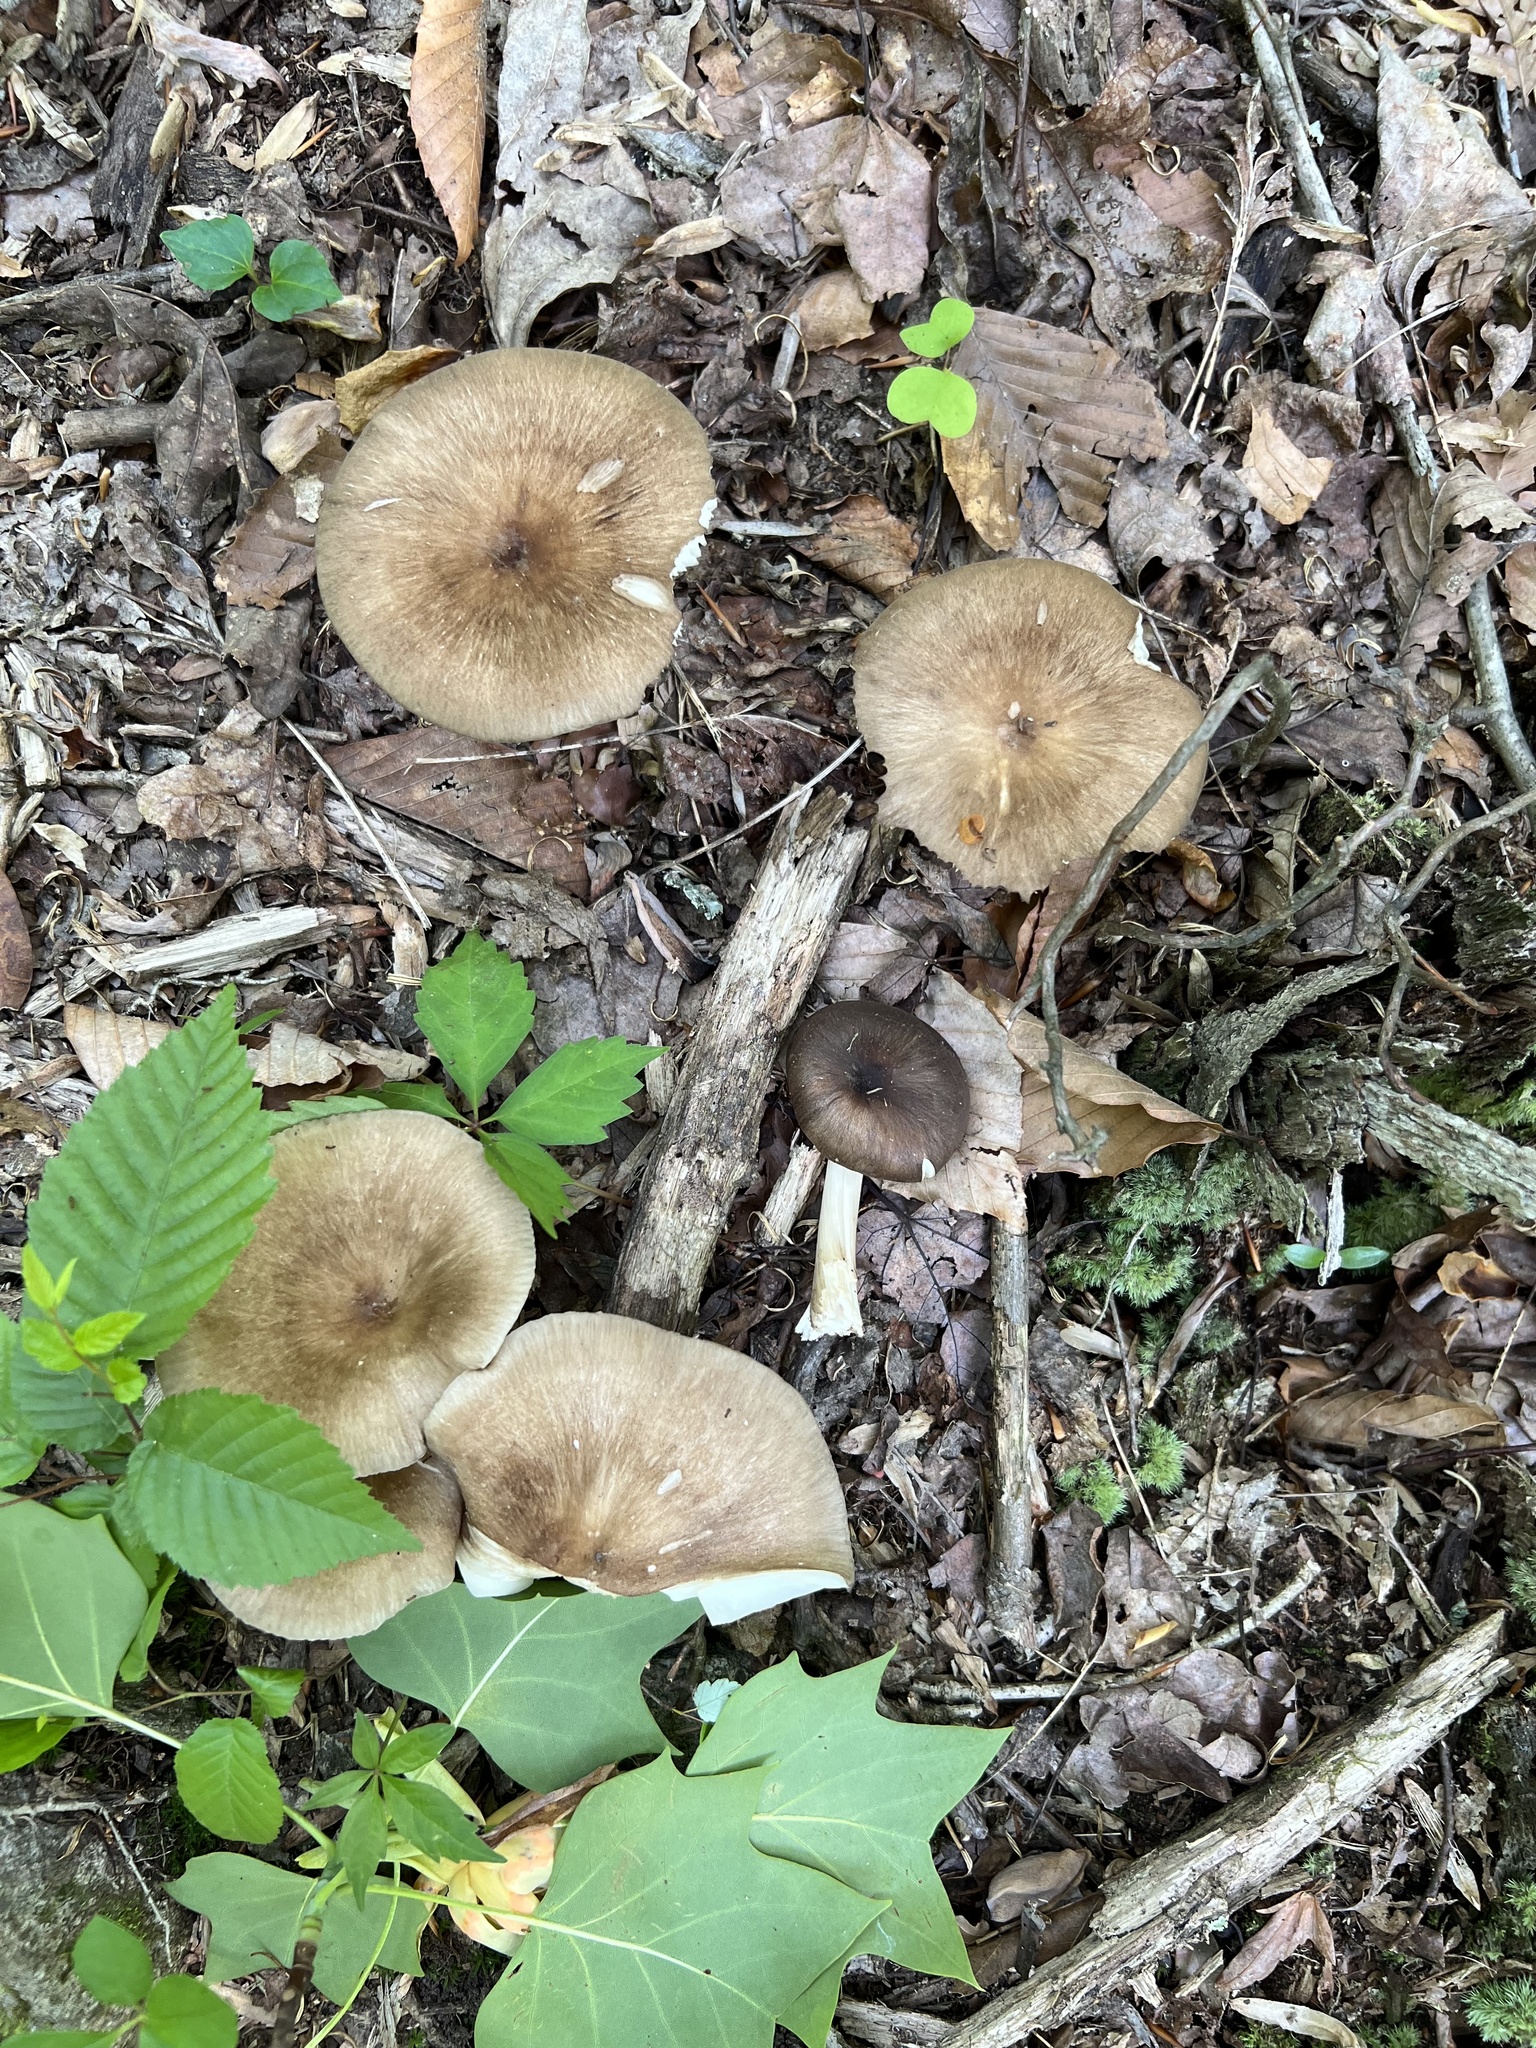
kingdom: Fungi
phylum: Basidiomycota
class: Agaricomycetes
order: Agaricales
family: Tricholomataceae
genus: Megacollybia
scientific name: Megacollybia rodmanii
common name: Eastern american platterful mushroom
